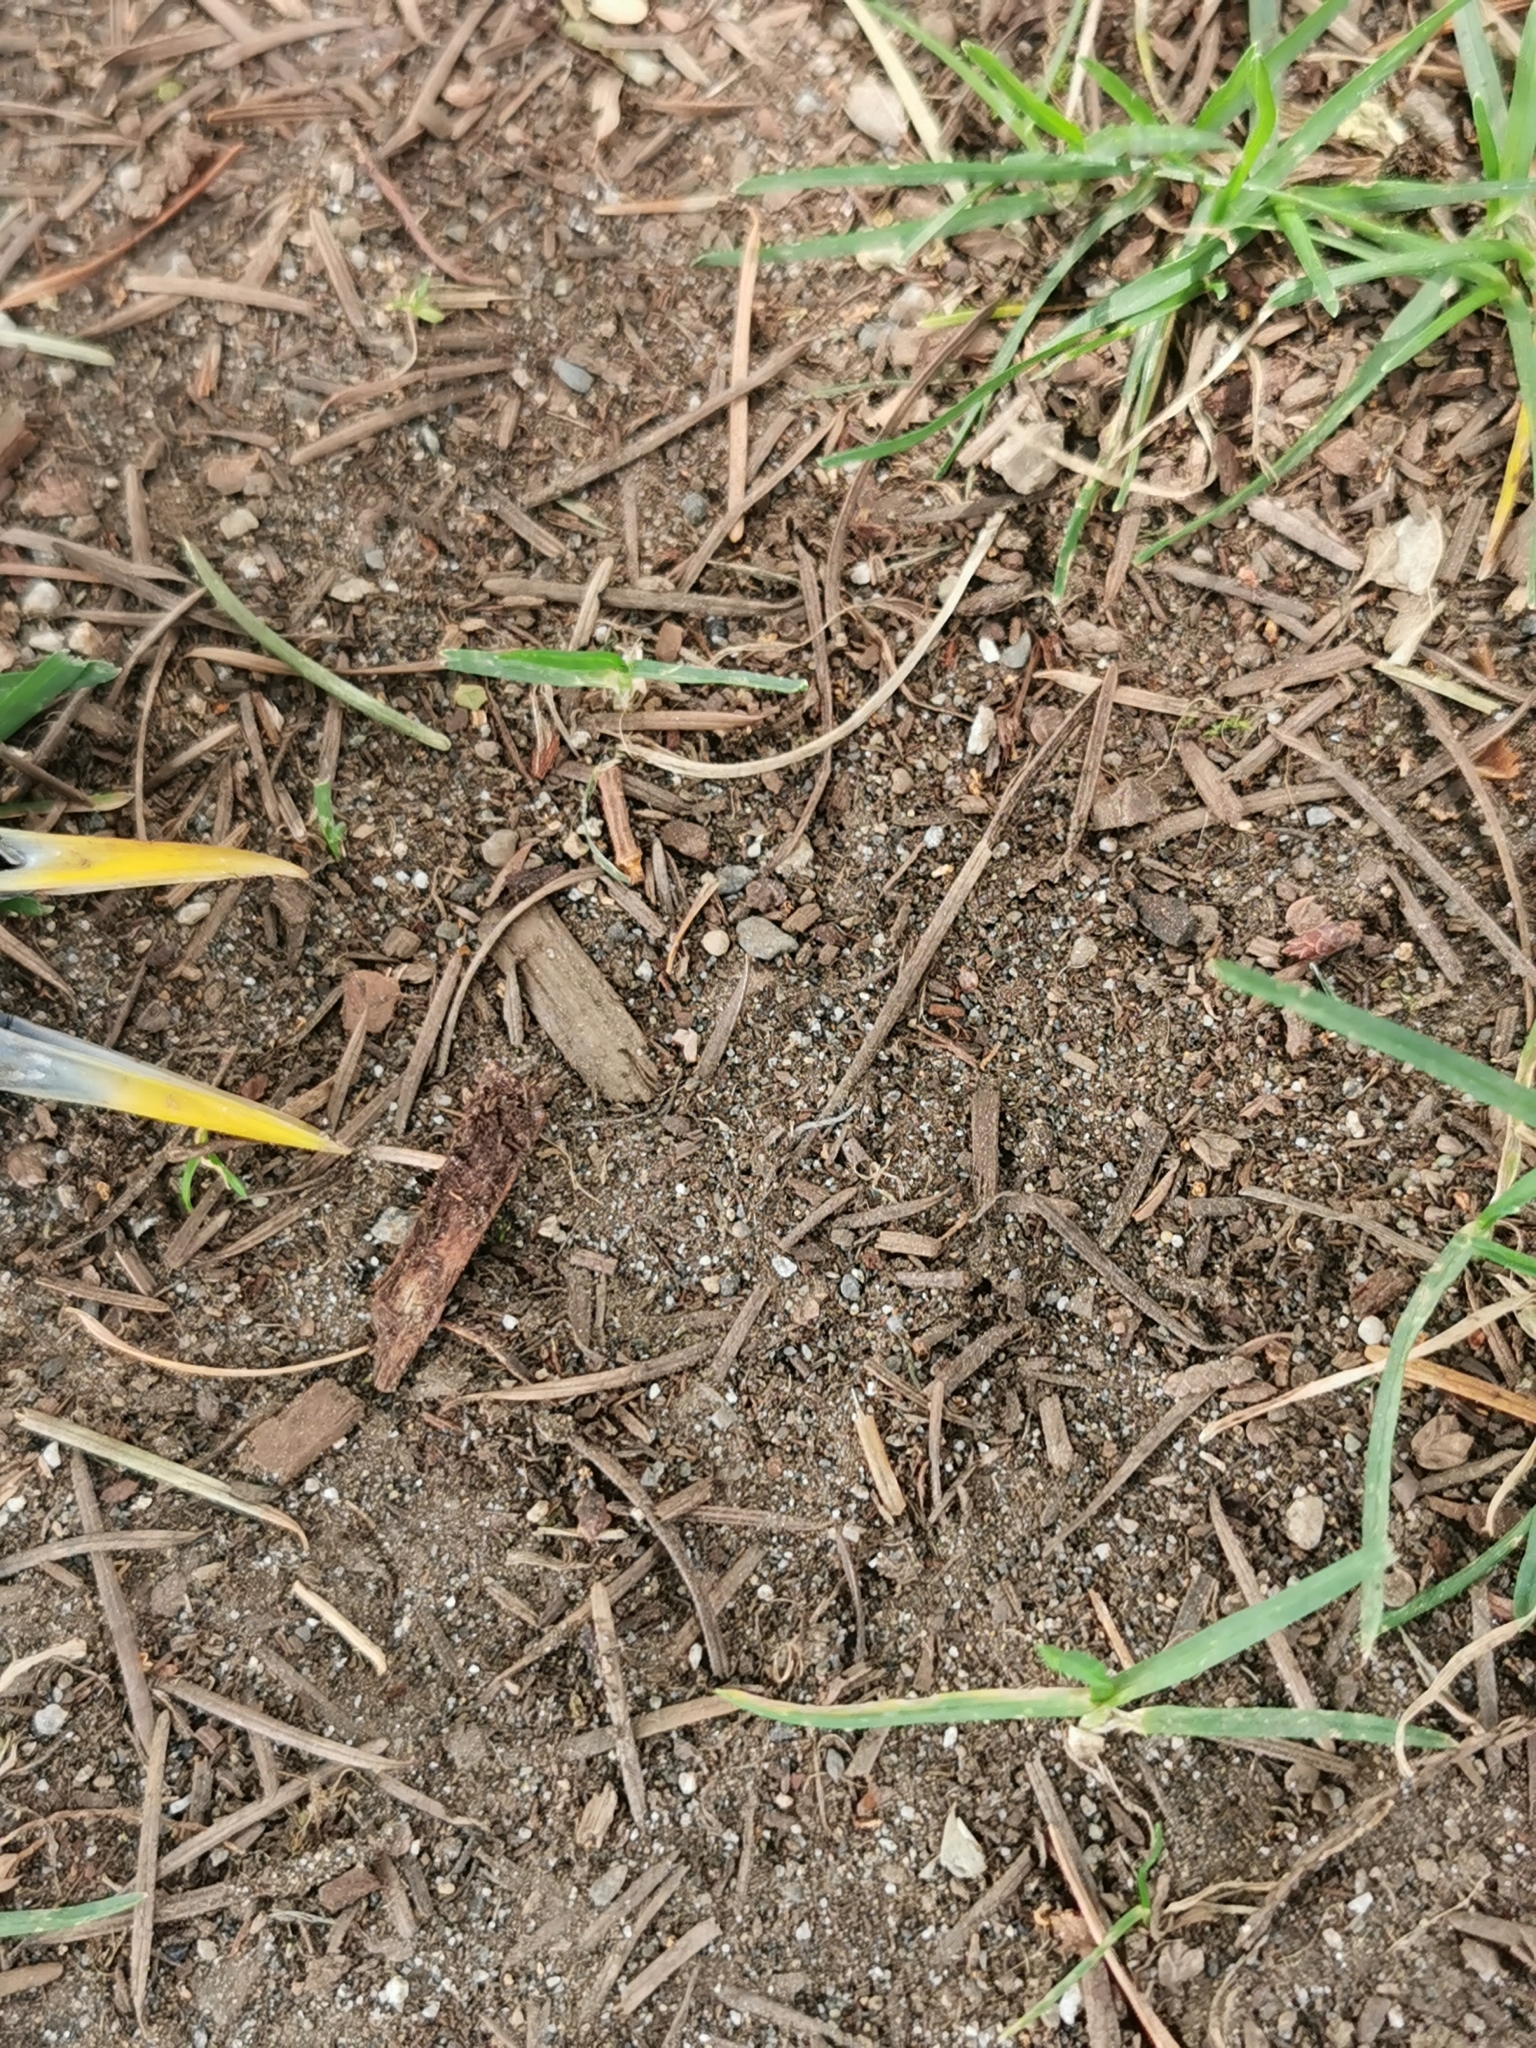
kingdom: Animalia
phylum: Chordata
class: Aves
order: Passeriformes
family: Sturnidae
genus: Sturnus
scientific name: Sturnus vulgaris
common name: Common starling
